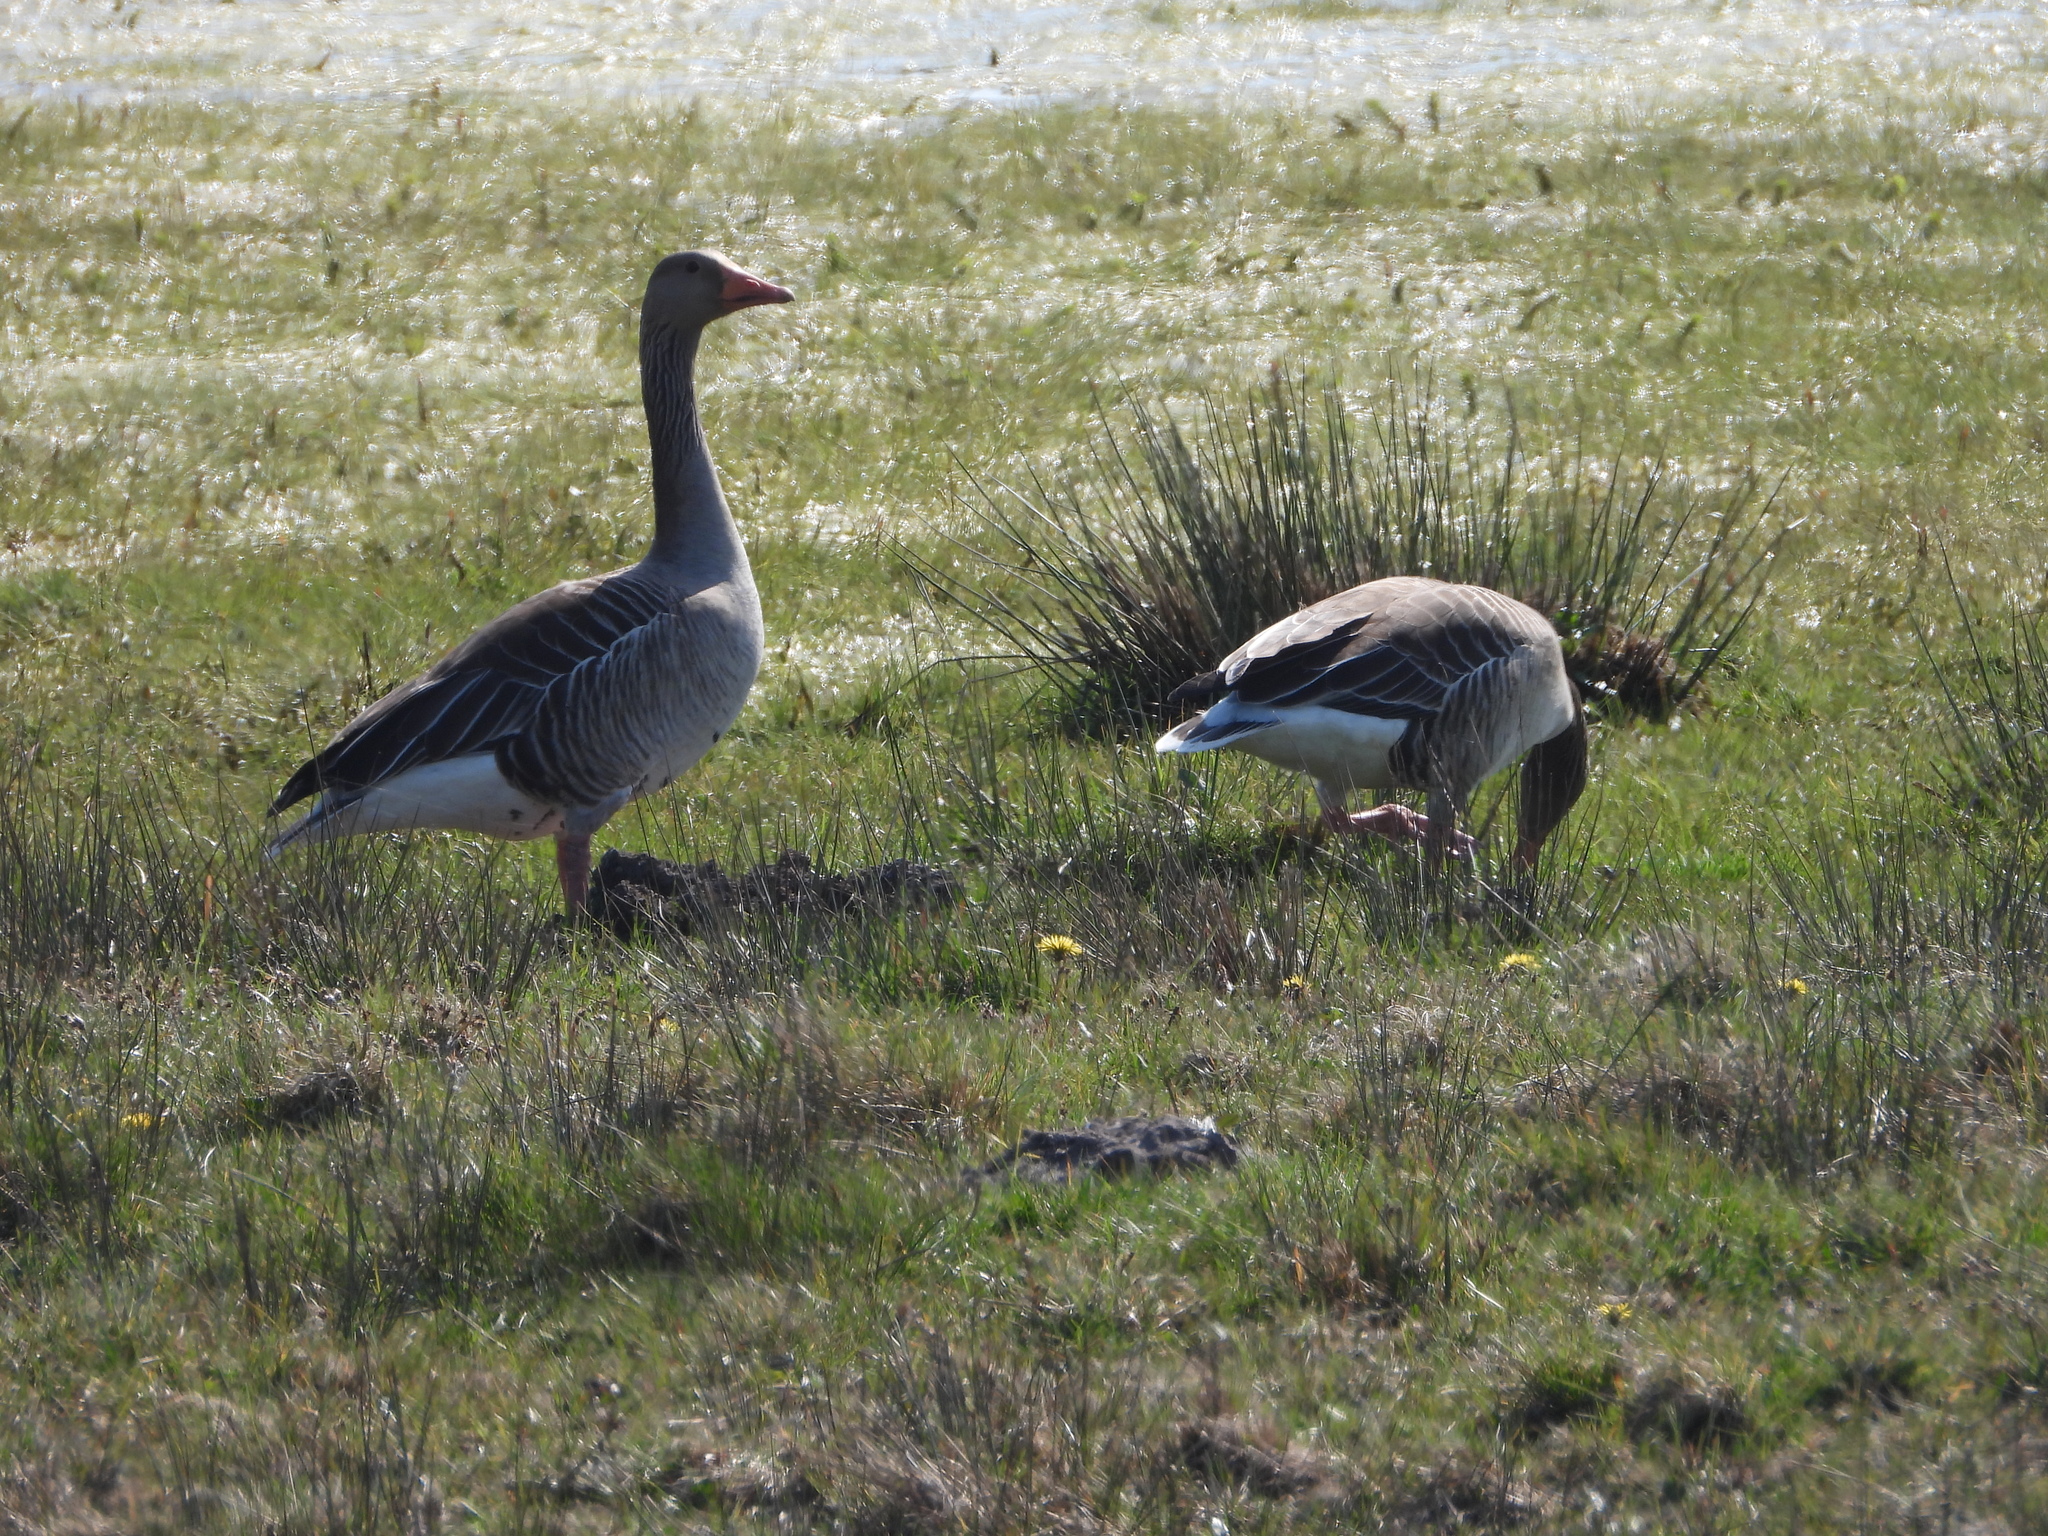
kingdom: Animalia
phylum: Chordata
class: Aves
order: Anseriformes
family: Anatidae
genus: Anser
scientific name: Anser anser
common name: Greylag goose
